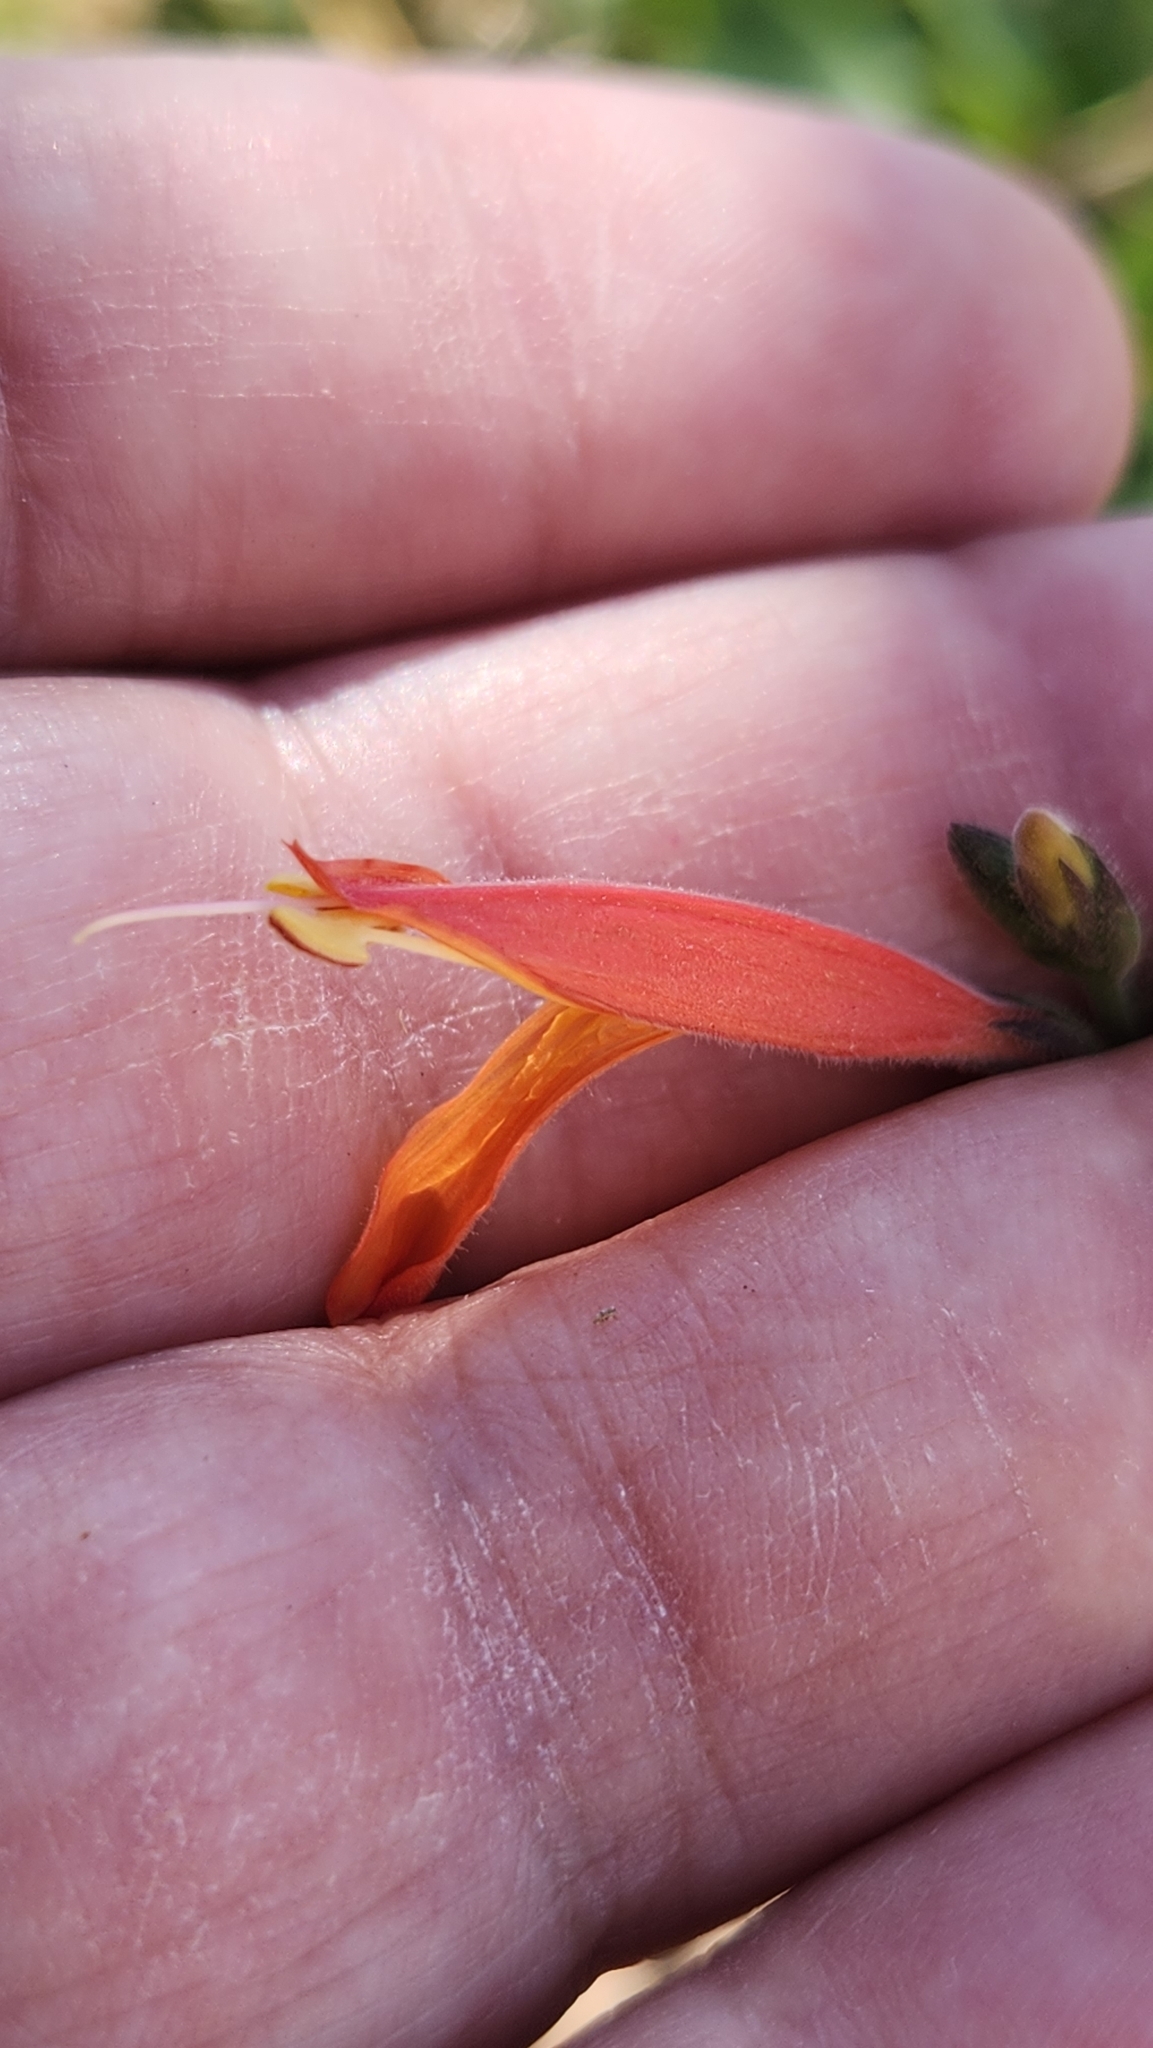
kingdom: Plantae
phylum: Tracheophyta
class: Magnoliopsida
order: Lamiales
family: Acanthaceae
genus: Justicia
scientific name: Justicia californica
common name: Chuparosa-honeysuckle
